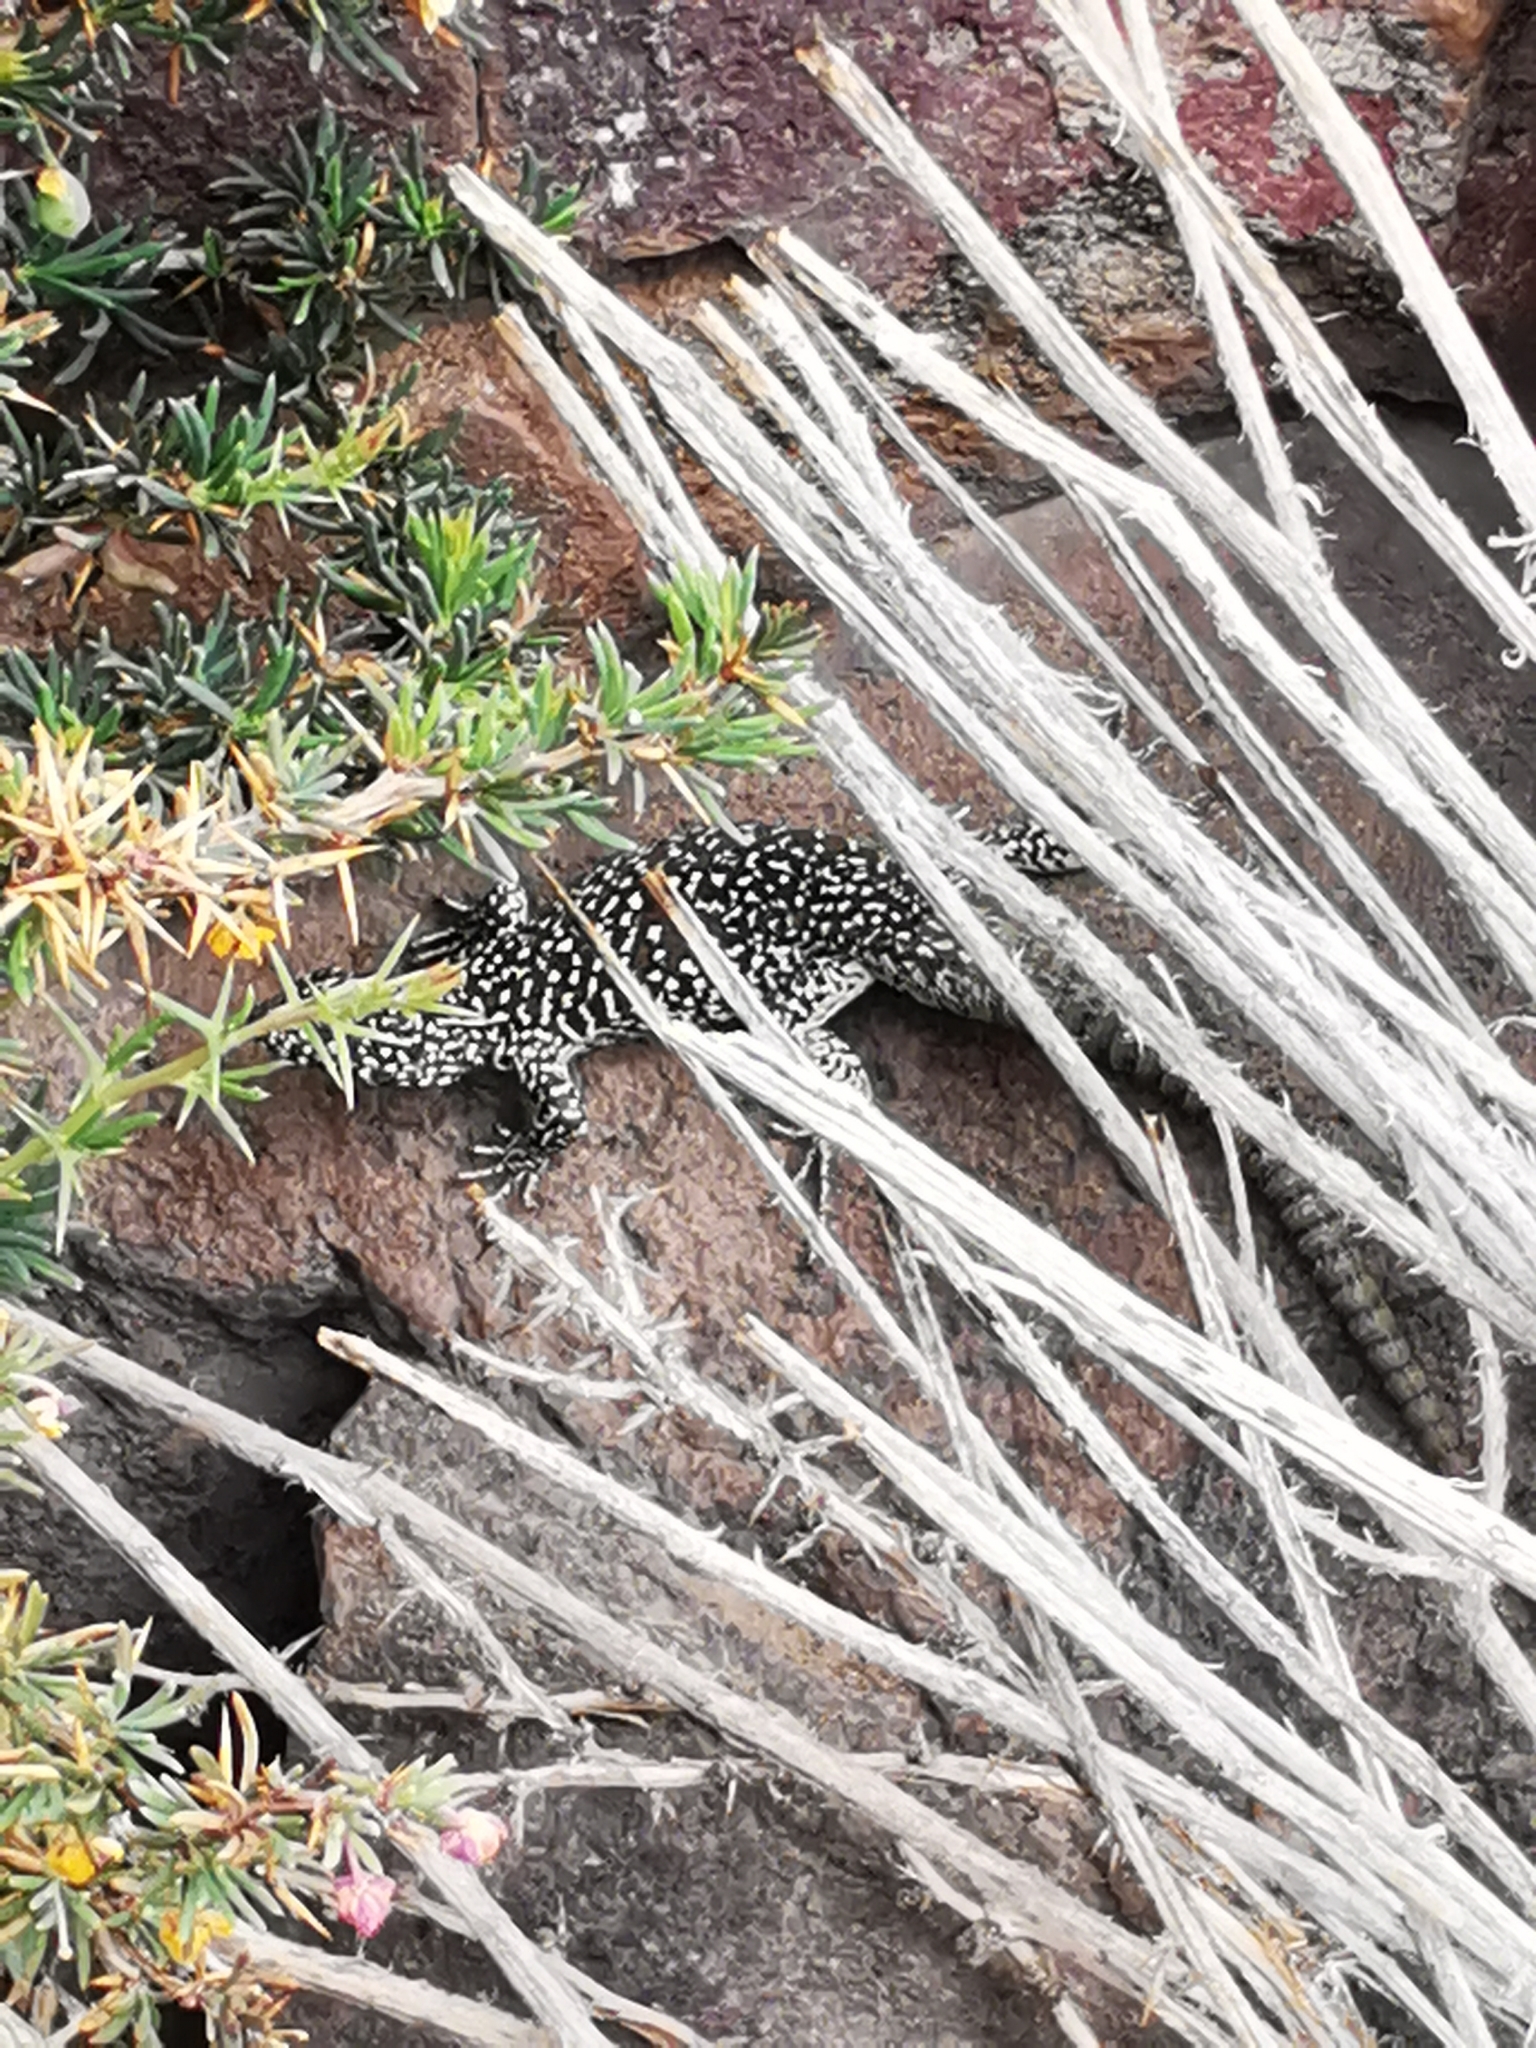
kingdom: Animalia
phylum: Chordata
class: Squamata
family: Liolaemidae
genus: Liolaemus
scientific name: Liolaemus nigroviridis
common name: Black-green tree iguana
